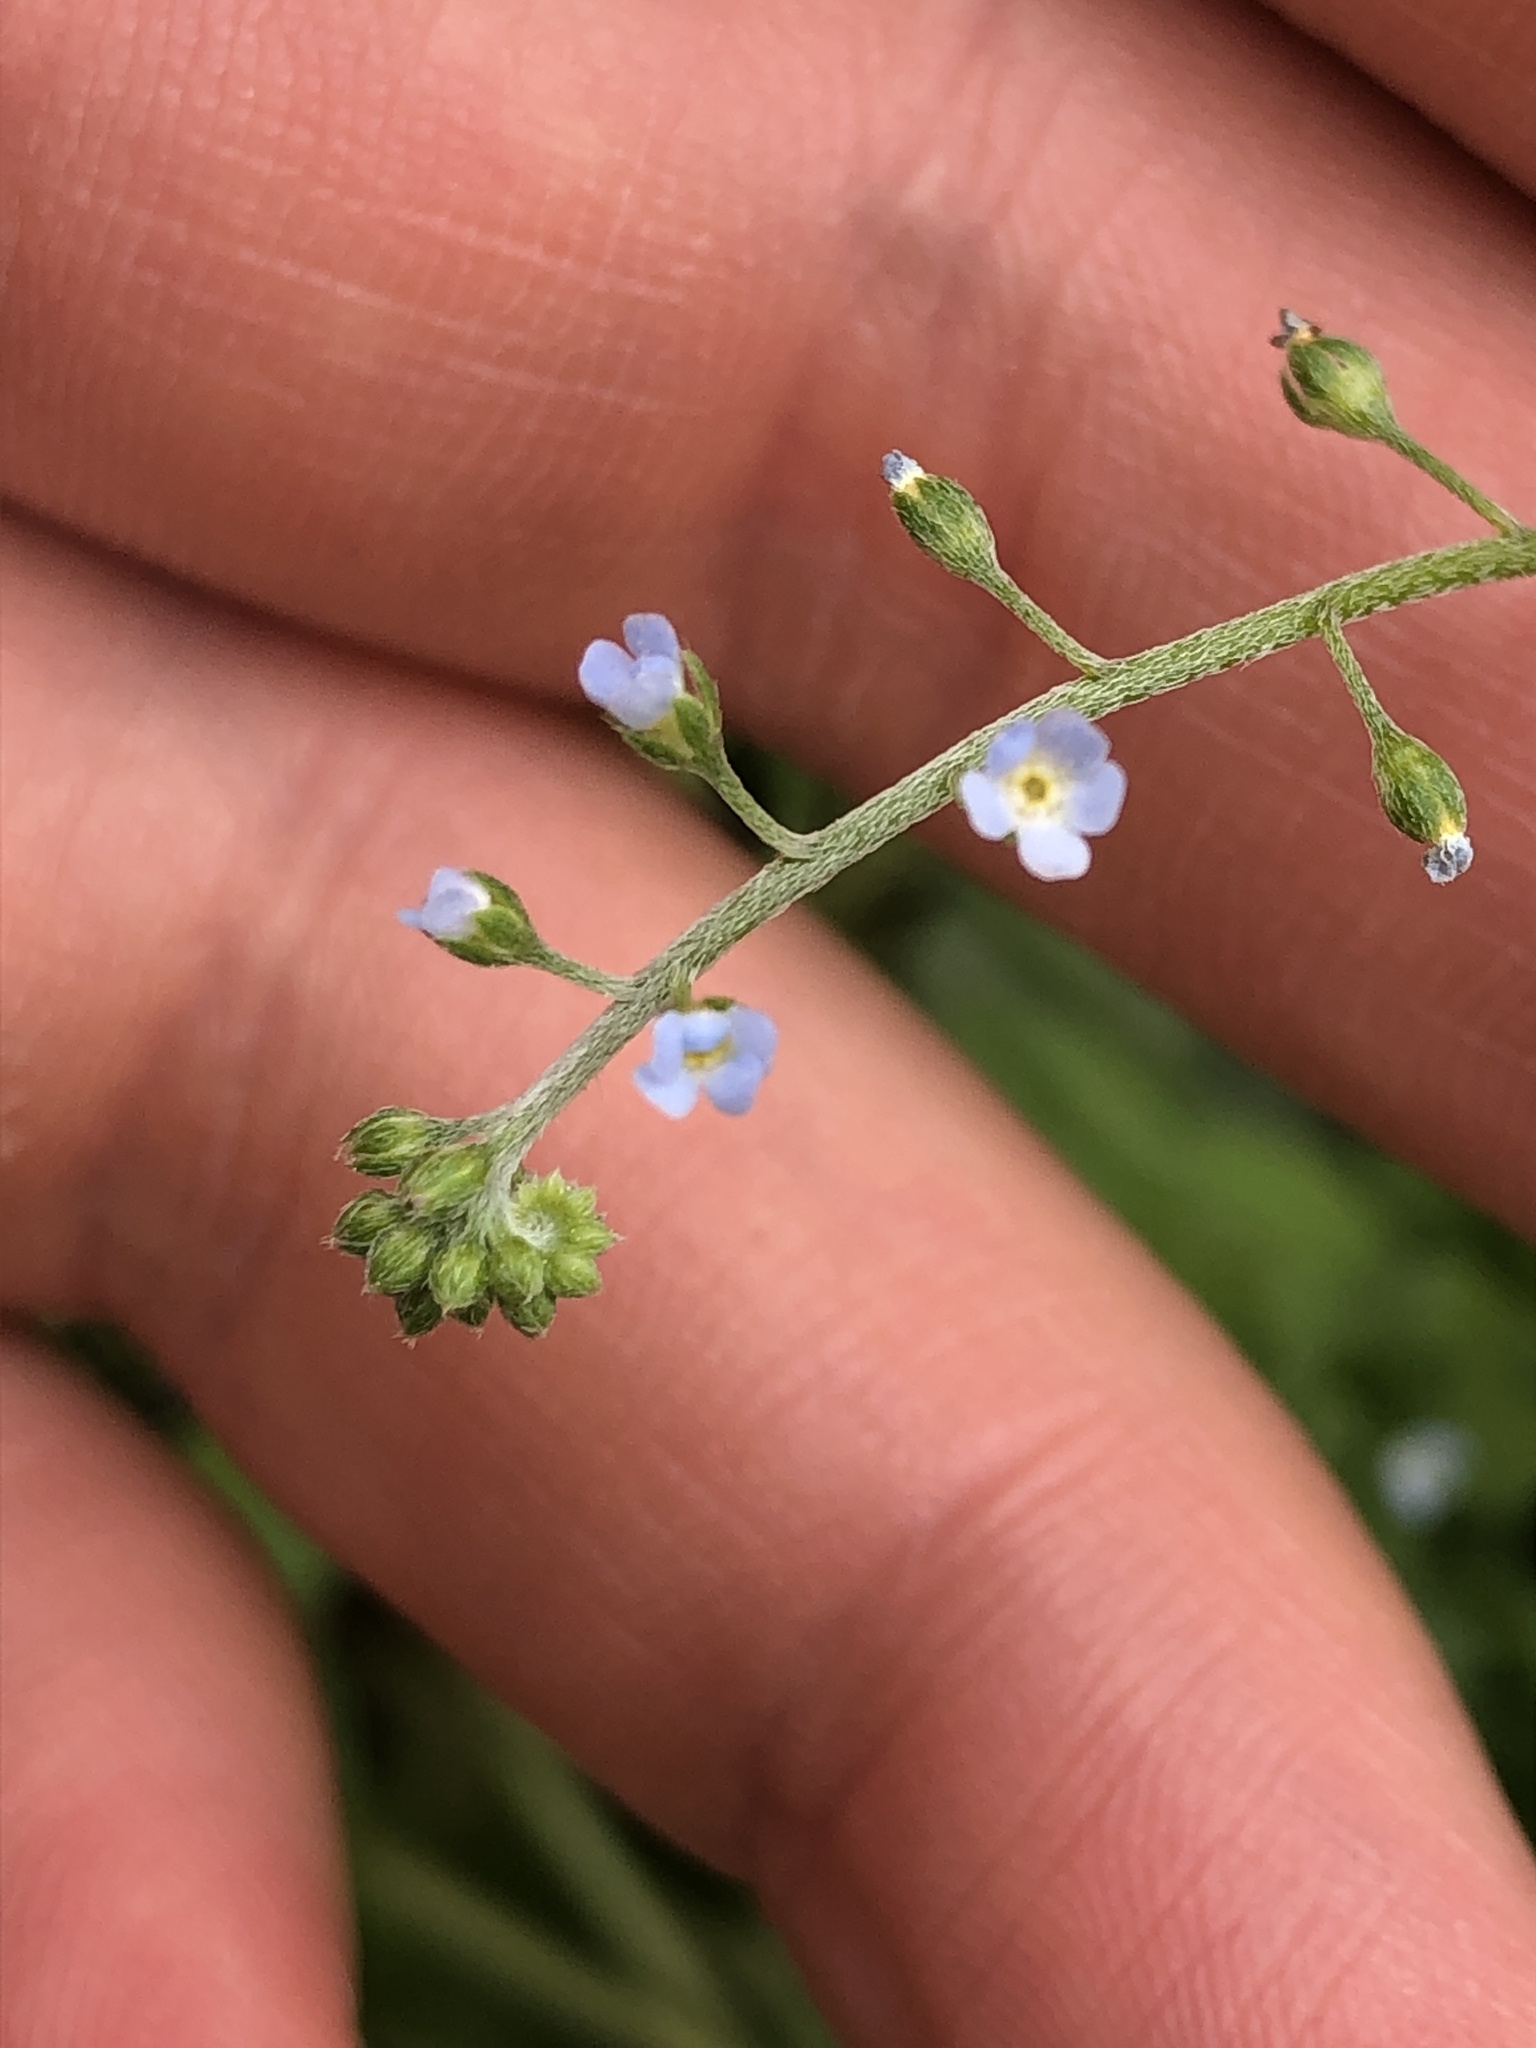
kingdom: Plantae
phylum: Tracheophyta
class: Magnoliopsida
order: Boraginales
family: Boraginaceae
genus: Trigonotis
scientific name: Trigonotis peduncularis
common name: Cucumber herb
